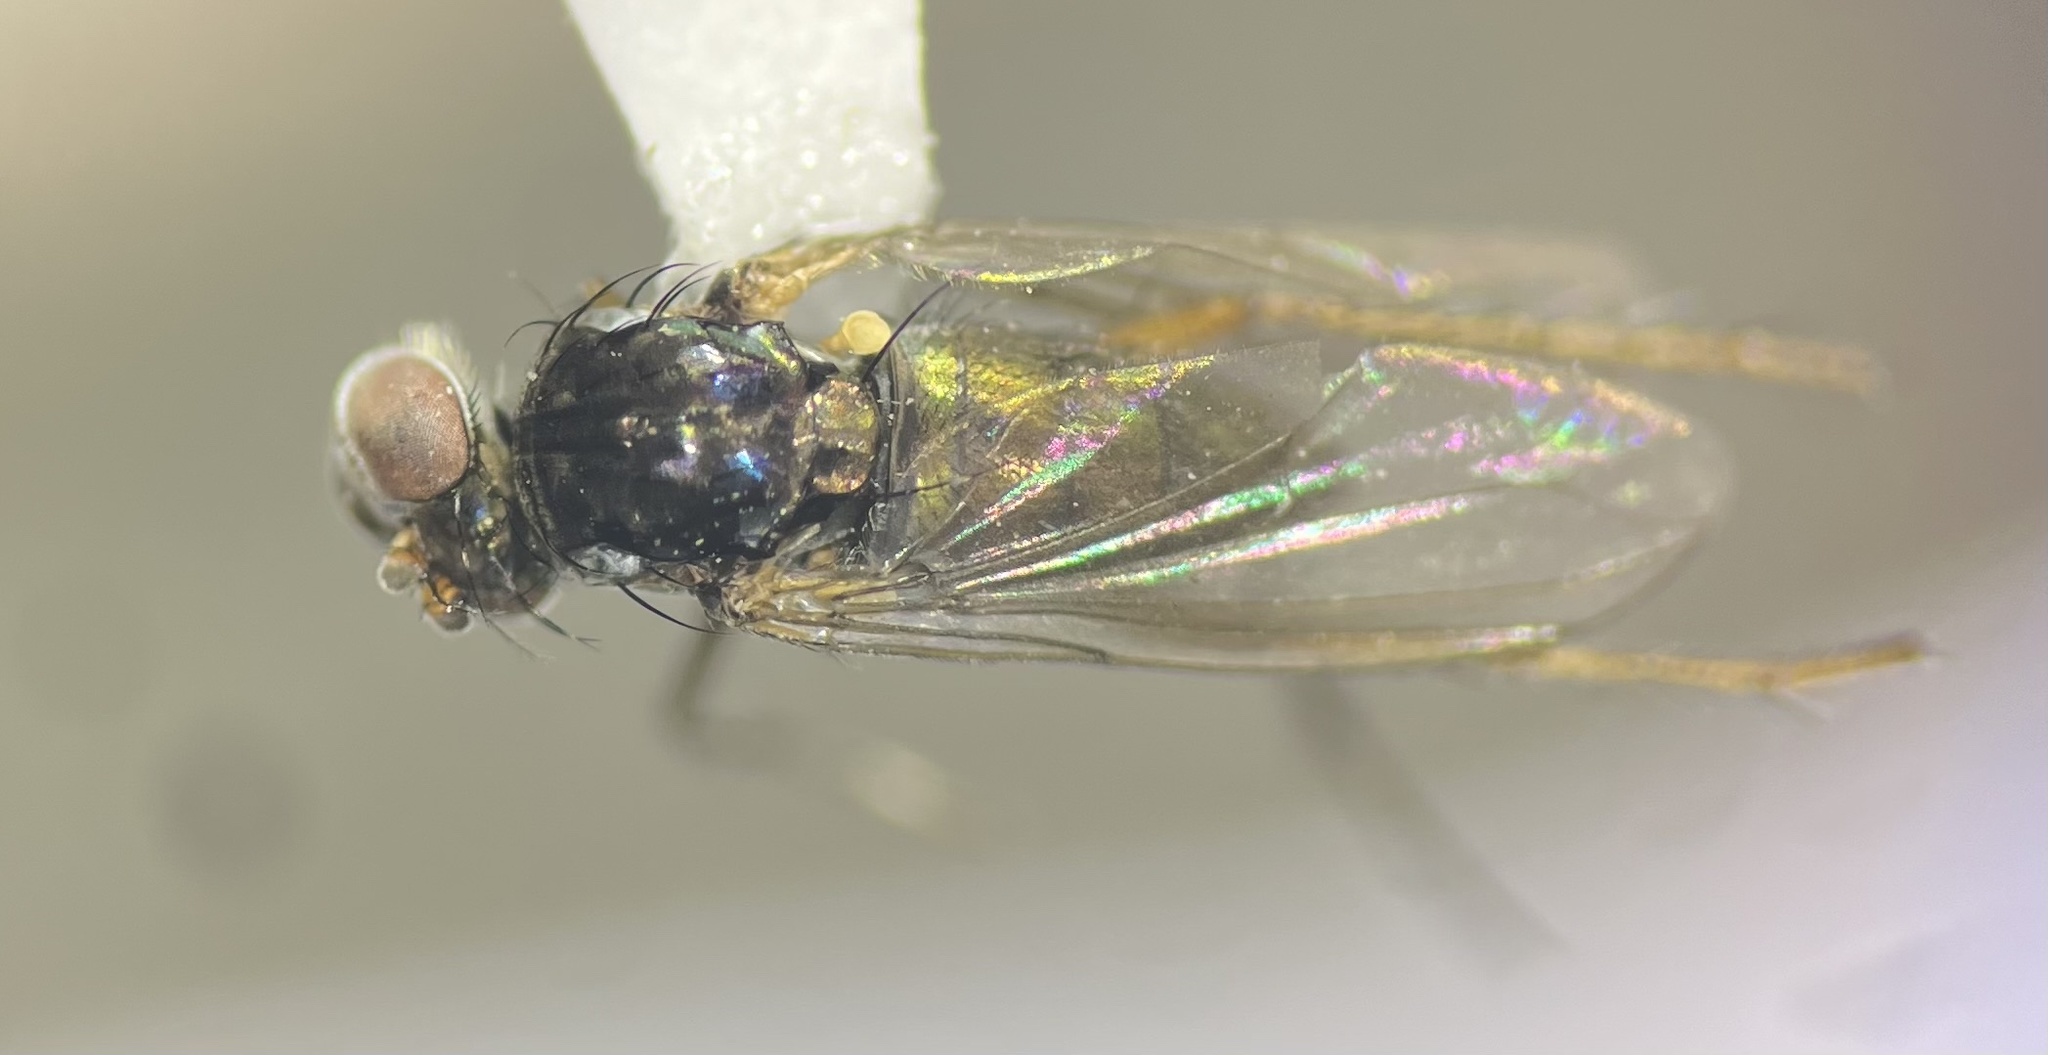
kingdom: Animalia
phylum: Arthropoda
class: Insecta
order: Diptera
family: Dolichopodidae
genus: Pelastoneurus
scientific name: Pelastoneurus vagans
